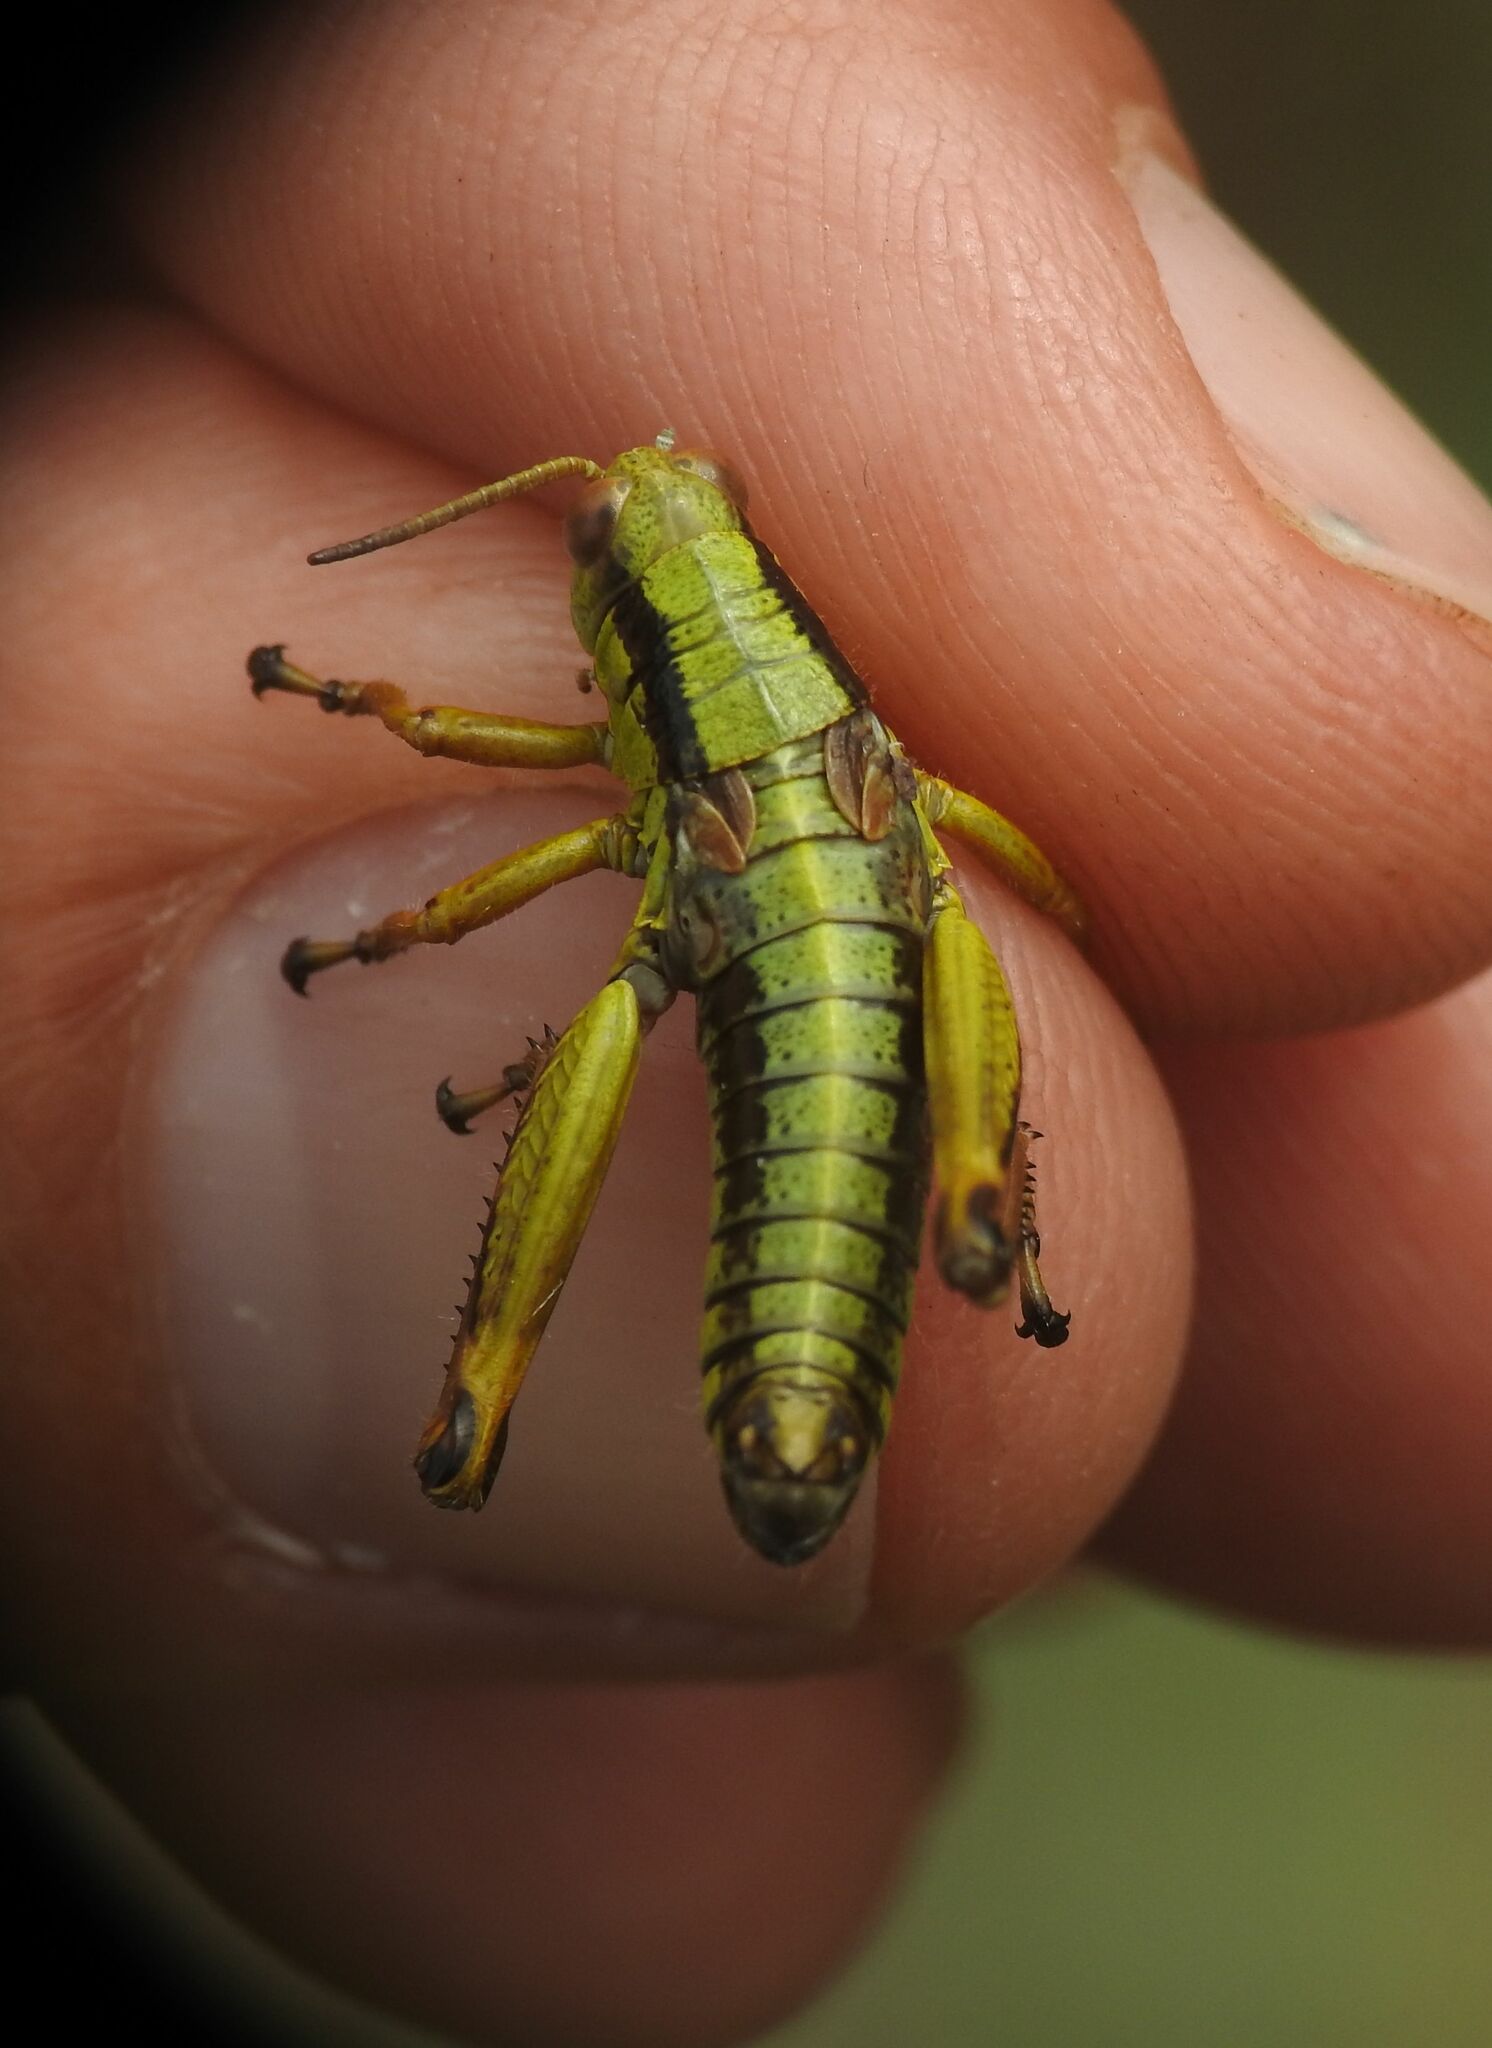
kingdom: Animalia
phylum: Arthropoda
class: Insecta
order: Orthoptera
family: Acrididae
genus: Miramella
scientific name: Miramella alpina
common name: Green mountain grasshopper
